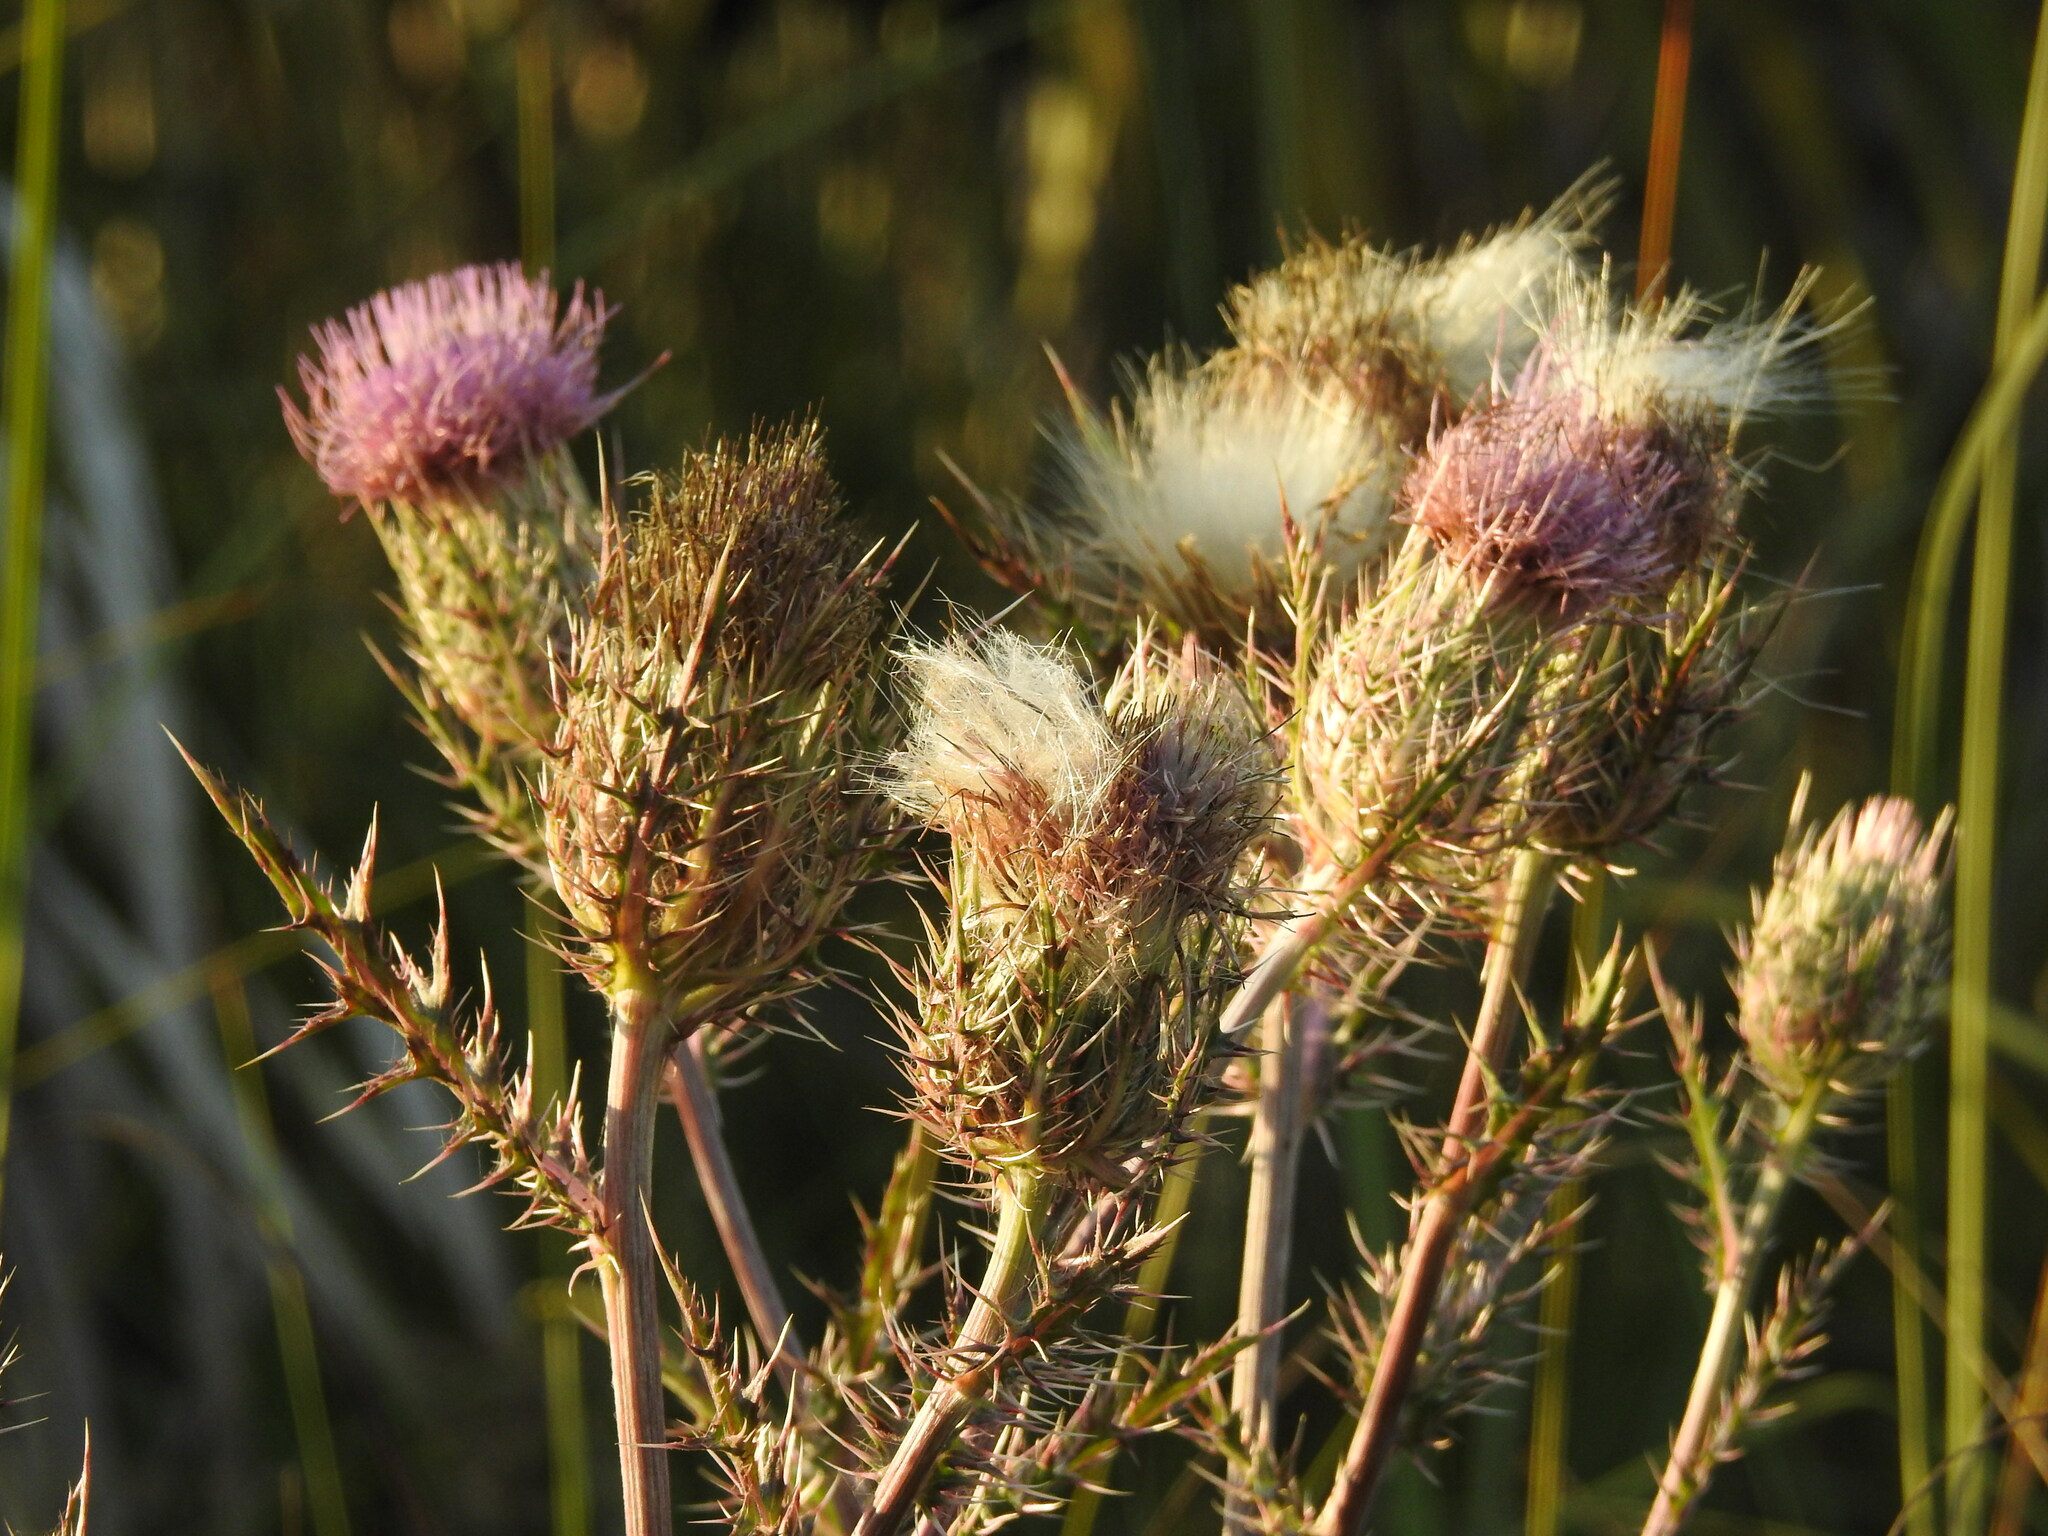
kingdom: Plantae
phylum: Tracheophyta
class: Magnoliopsida
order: Asterales
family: Asteraceae
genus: Cirsium
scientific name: Cirsium horridulum
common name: Bristly thistle
